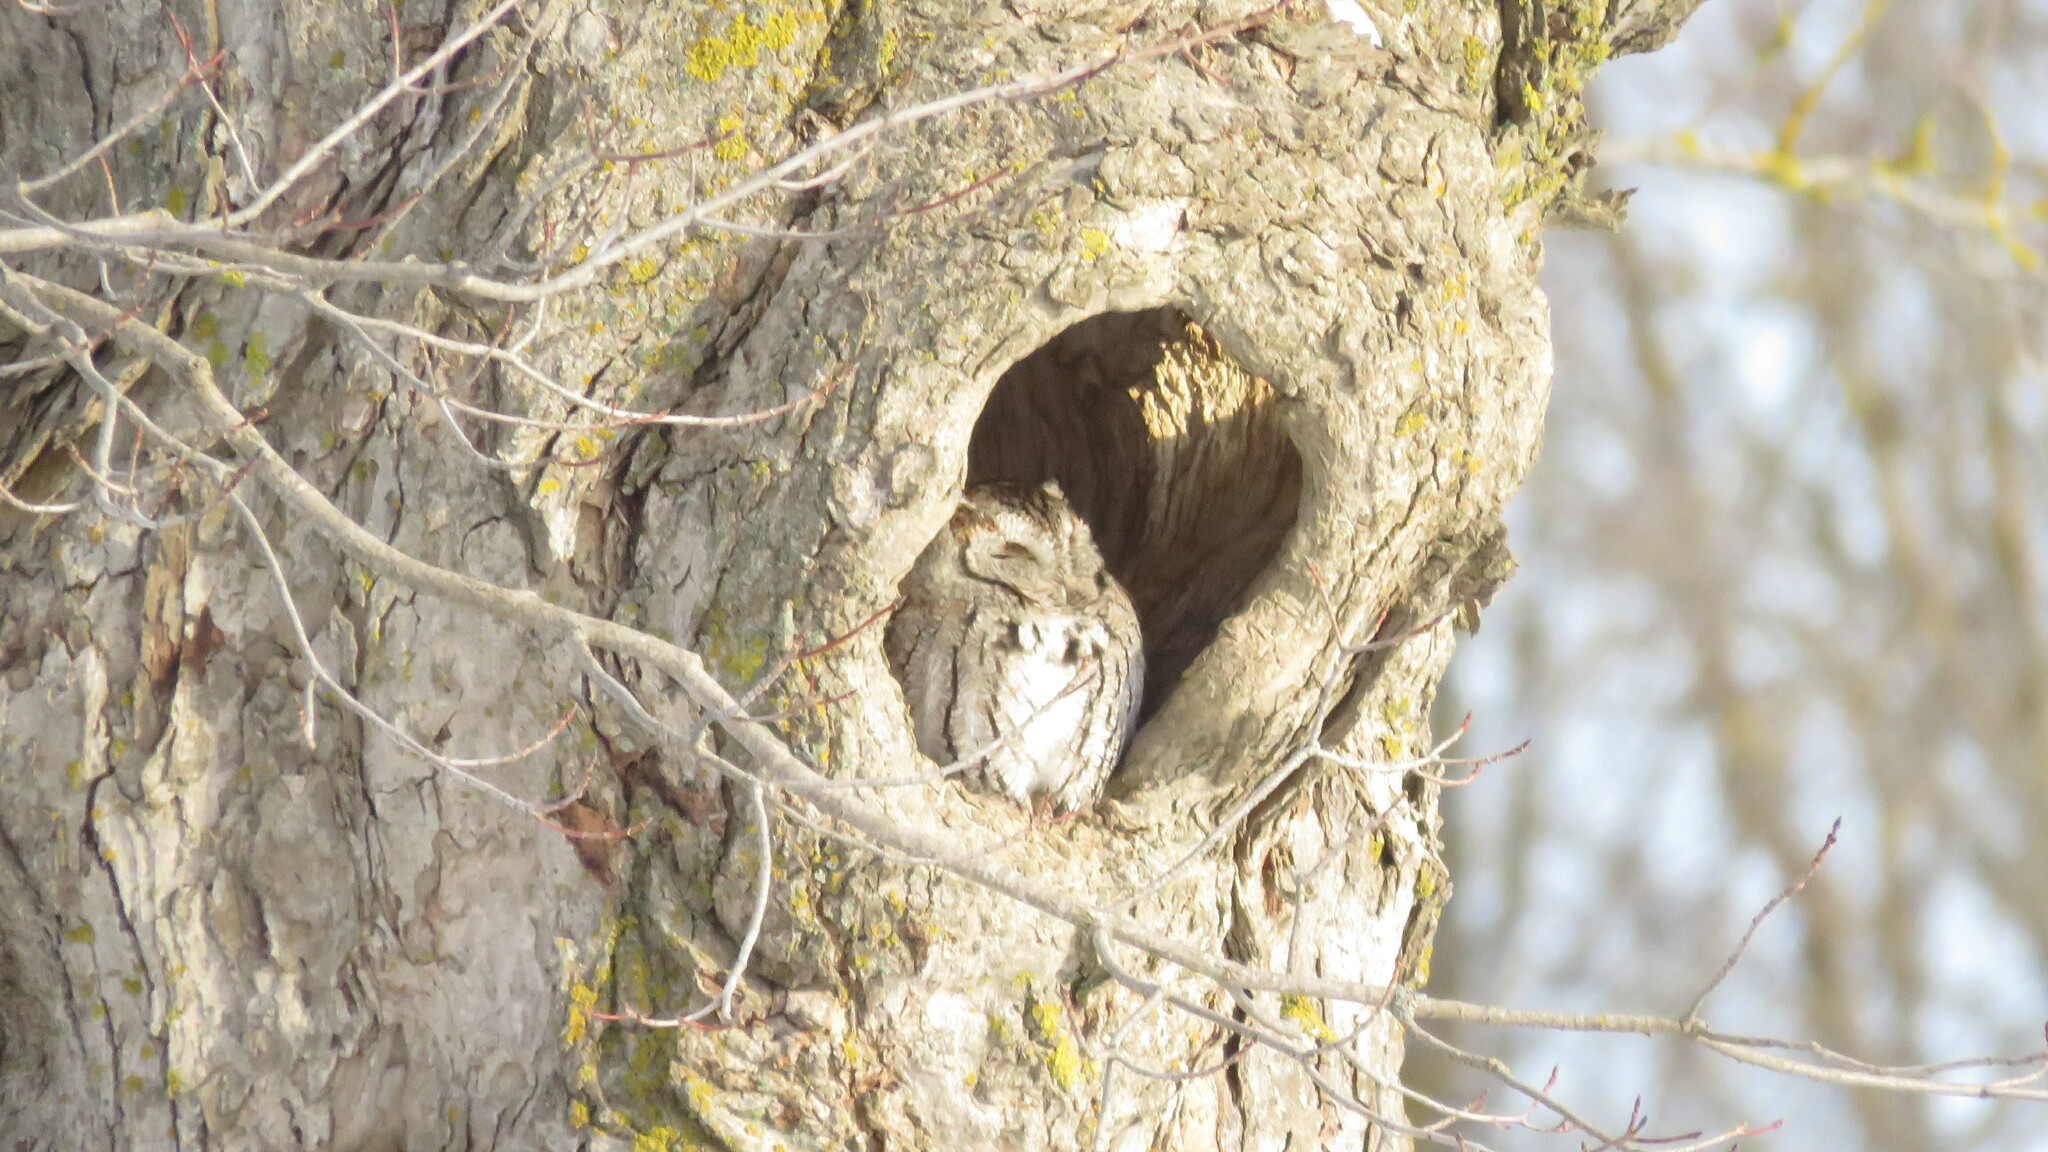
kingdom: Animalia
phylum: Chordata
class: Aves
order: Strigiformes
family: Strigidae
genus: Megascops
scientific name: Megascops asio
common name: Eastern screech-owl
